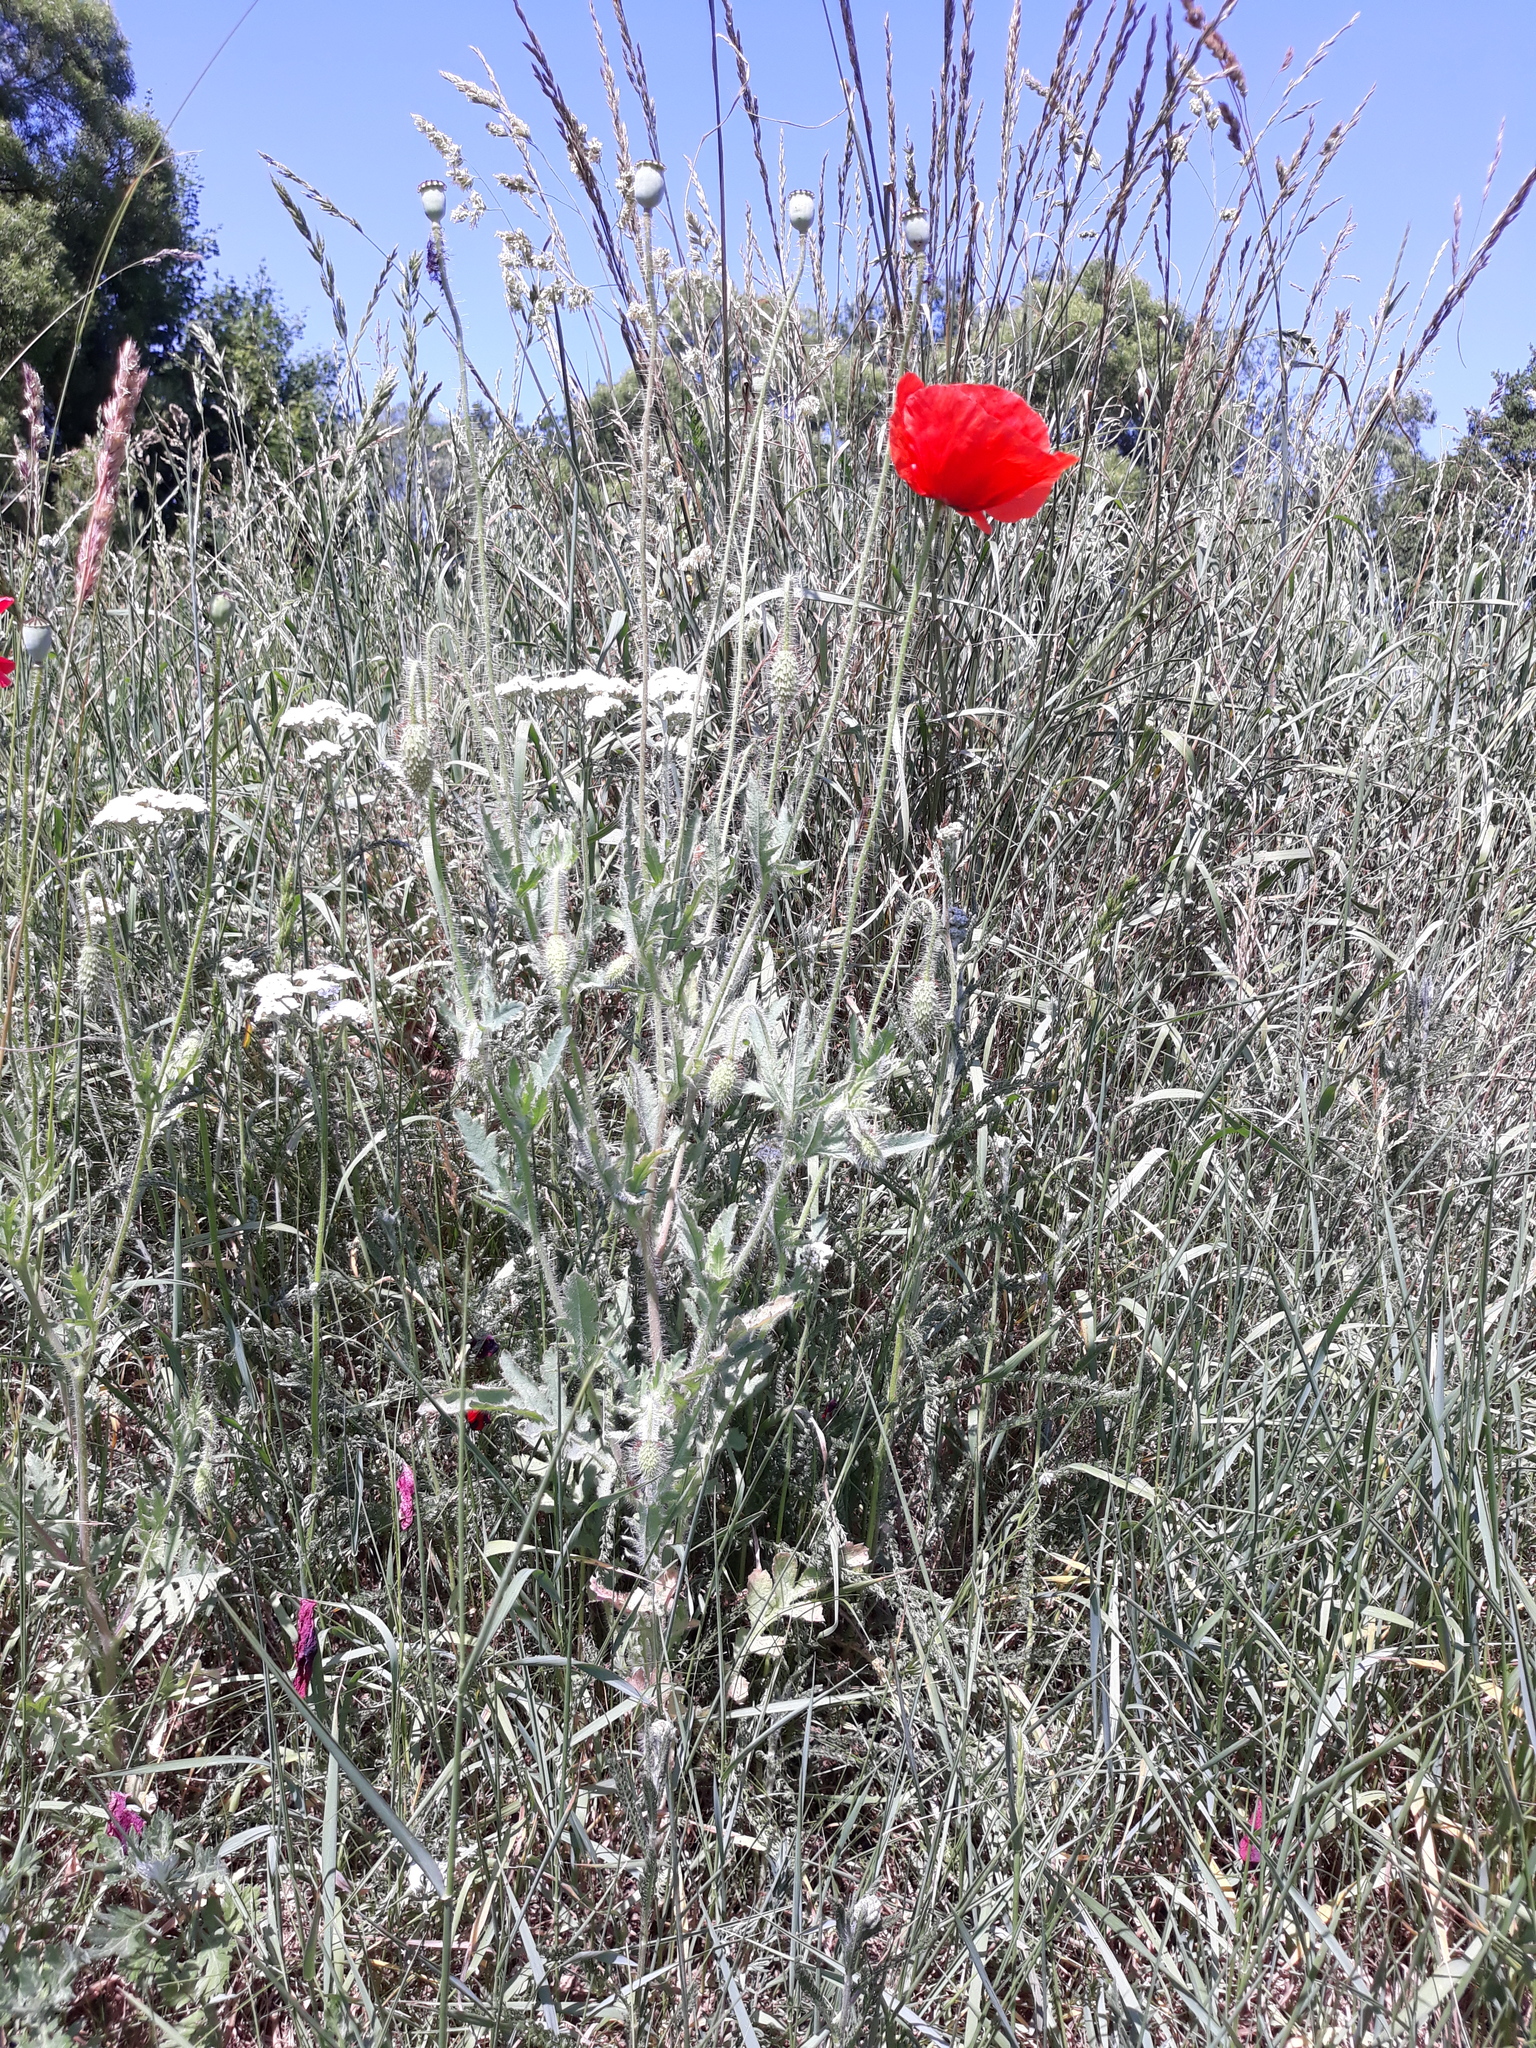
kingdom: Plantae
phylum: Tracheophyta
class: Magnoliopsida
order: Ranunculales
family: Papaveraceae
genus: Papaver
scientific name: Papaver rhoeas
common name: Corn poppy
